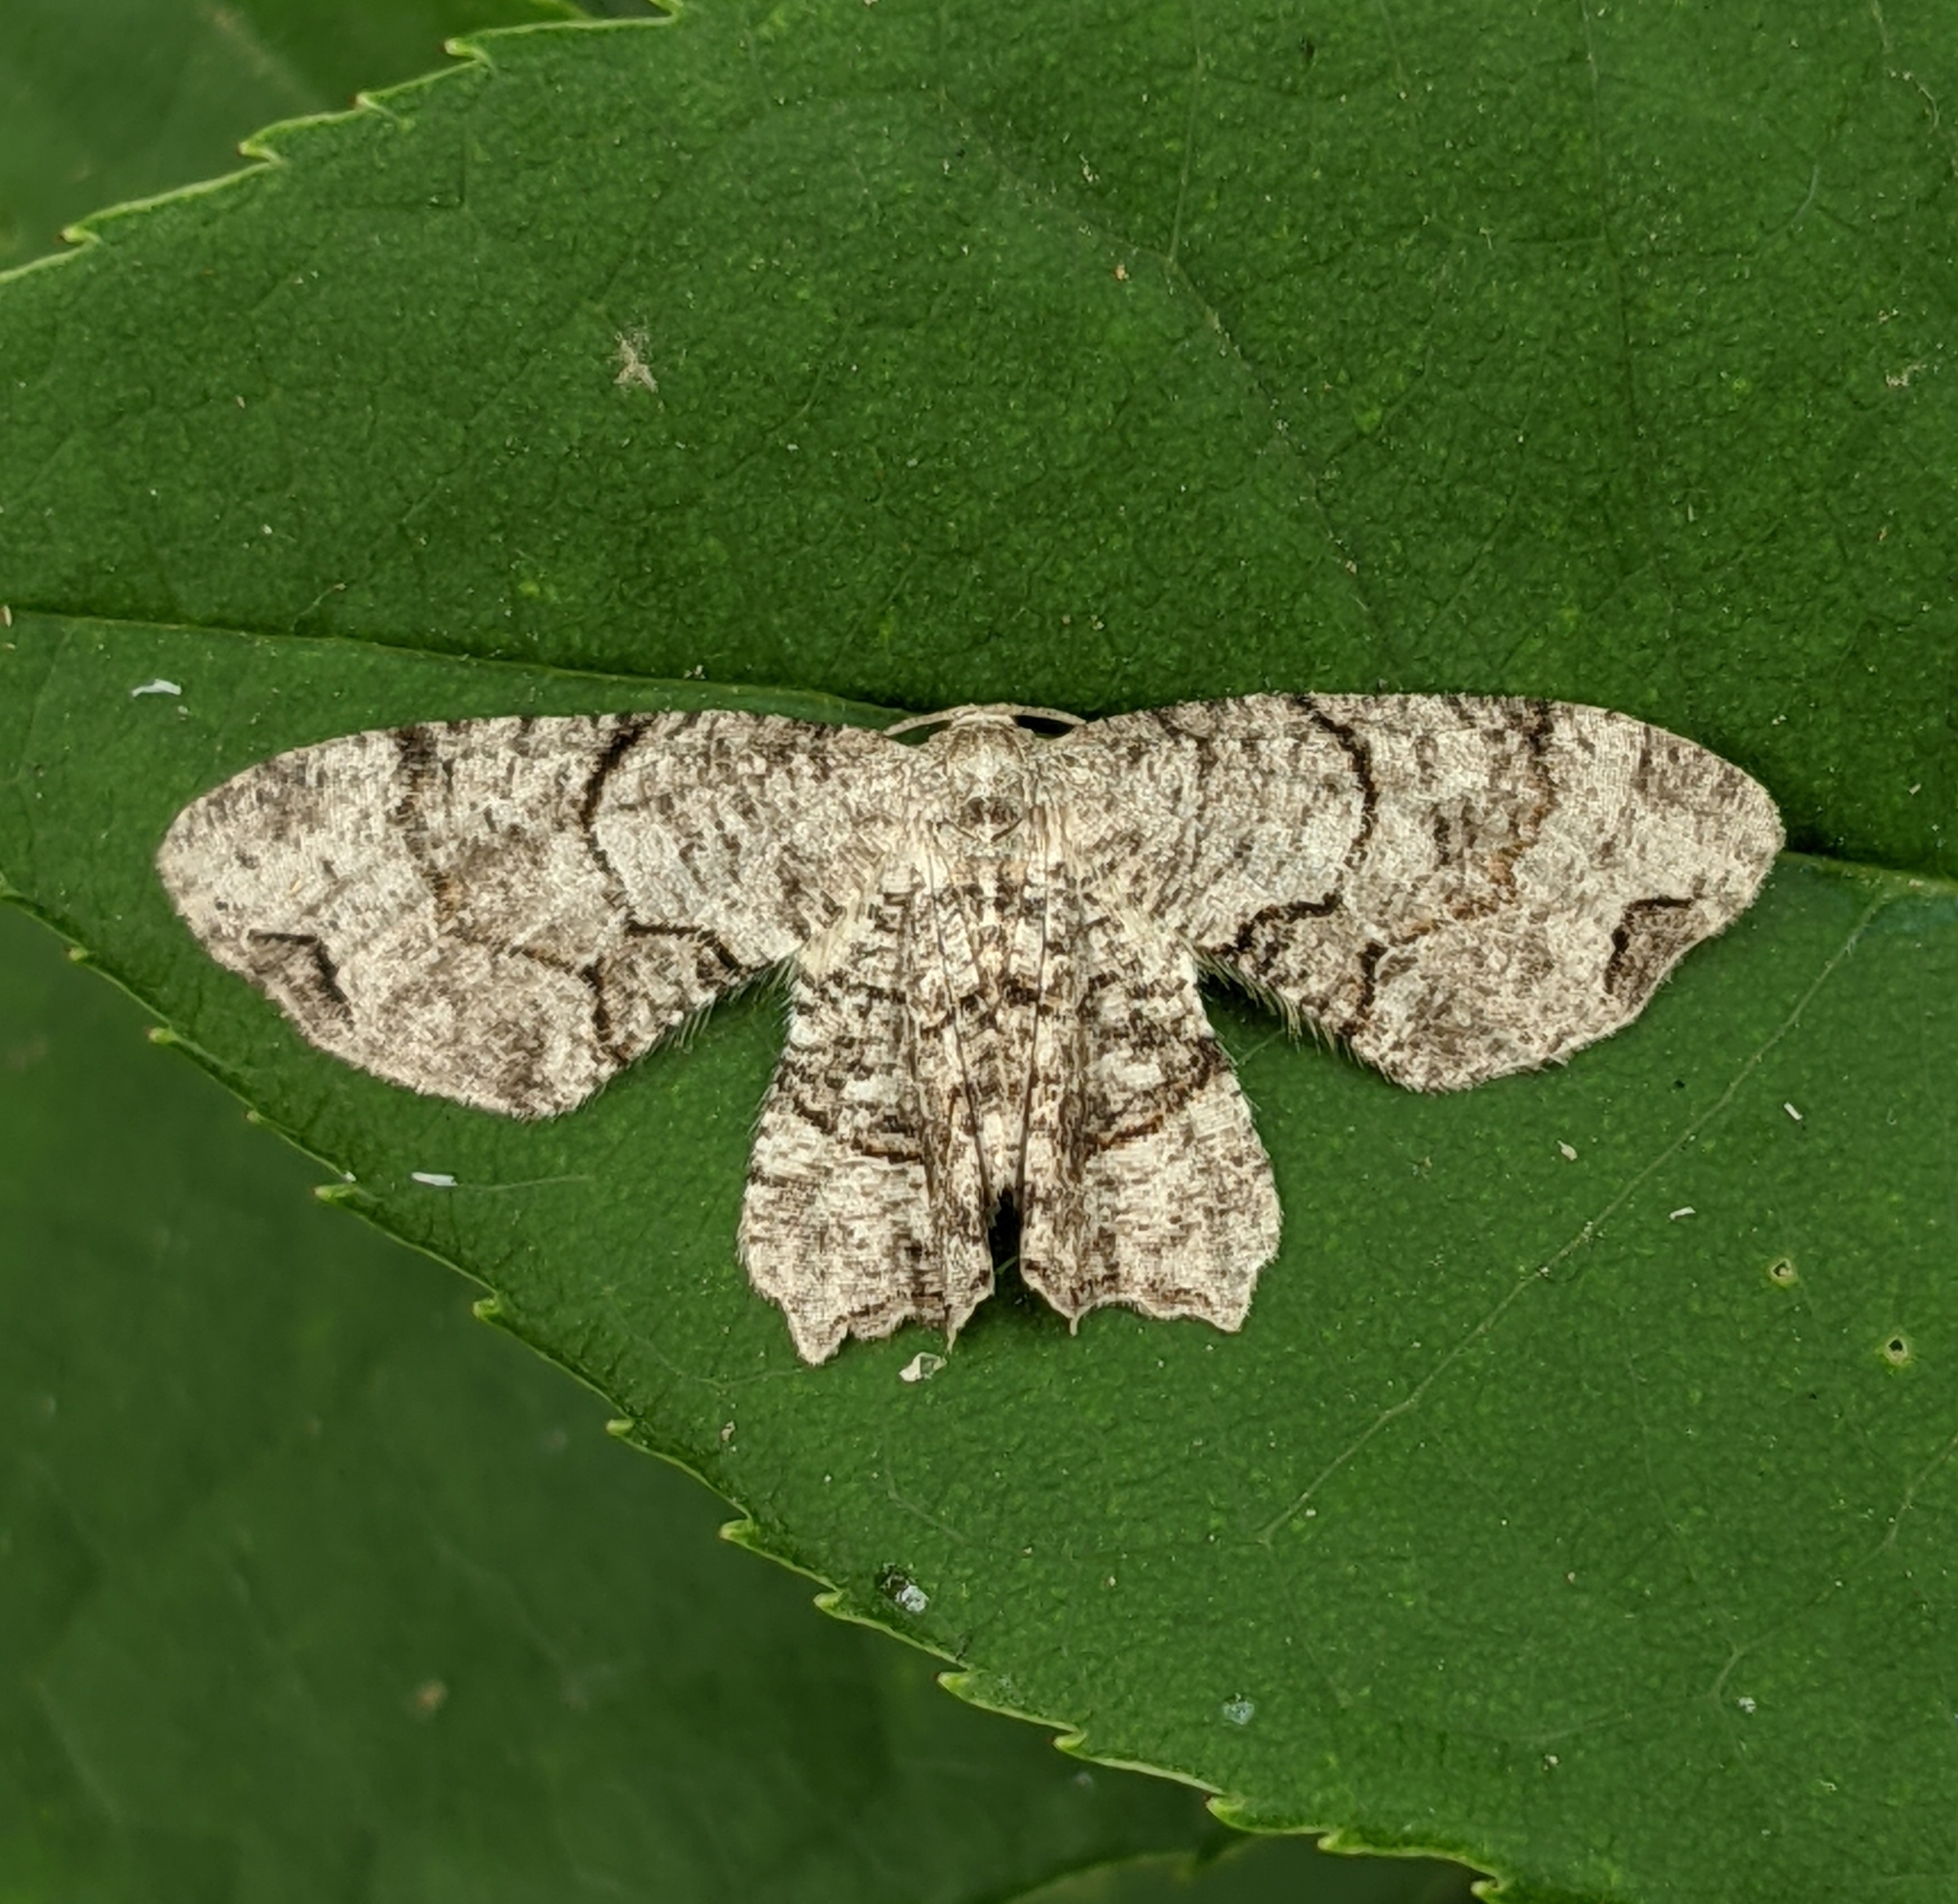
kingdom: Animalia
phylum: Arthropoda
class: Insecta
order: Lepidoptera
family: Uraniidae
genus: Epiplema
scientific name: Epiplema Callizzia amorata
